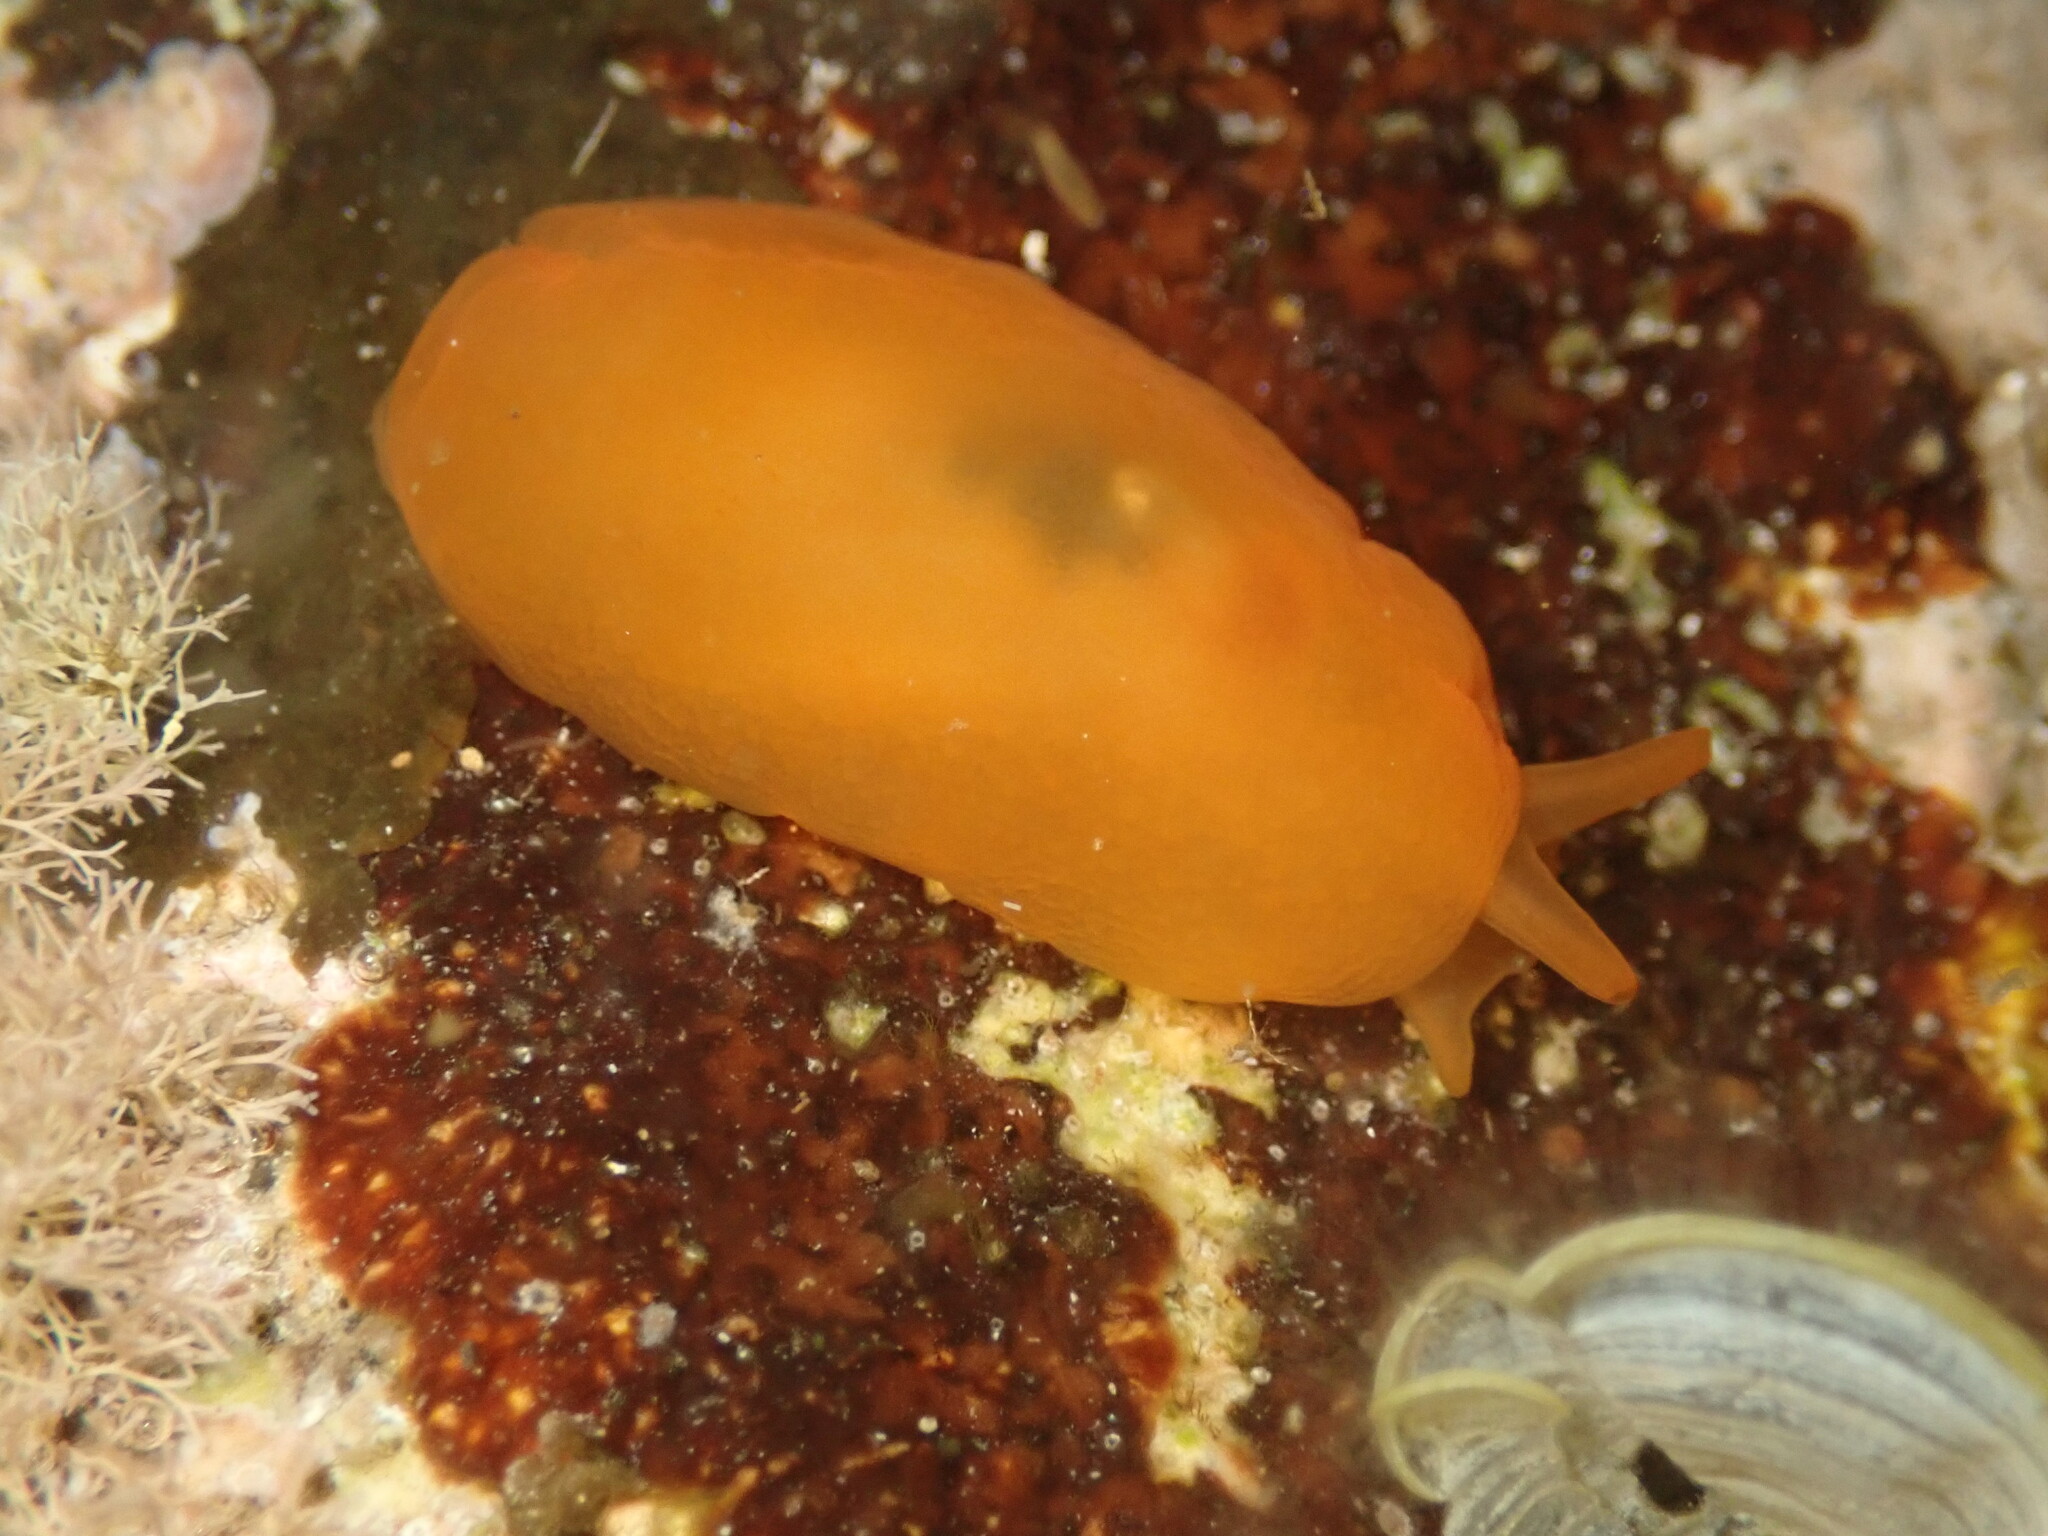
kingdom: Animalia
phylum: Mollusca
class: Gastropoda
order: Pleurobranchida
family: Pleurobranchidae
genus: Berthellina
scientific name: Berthellina delicata
